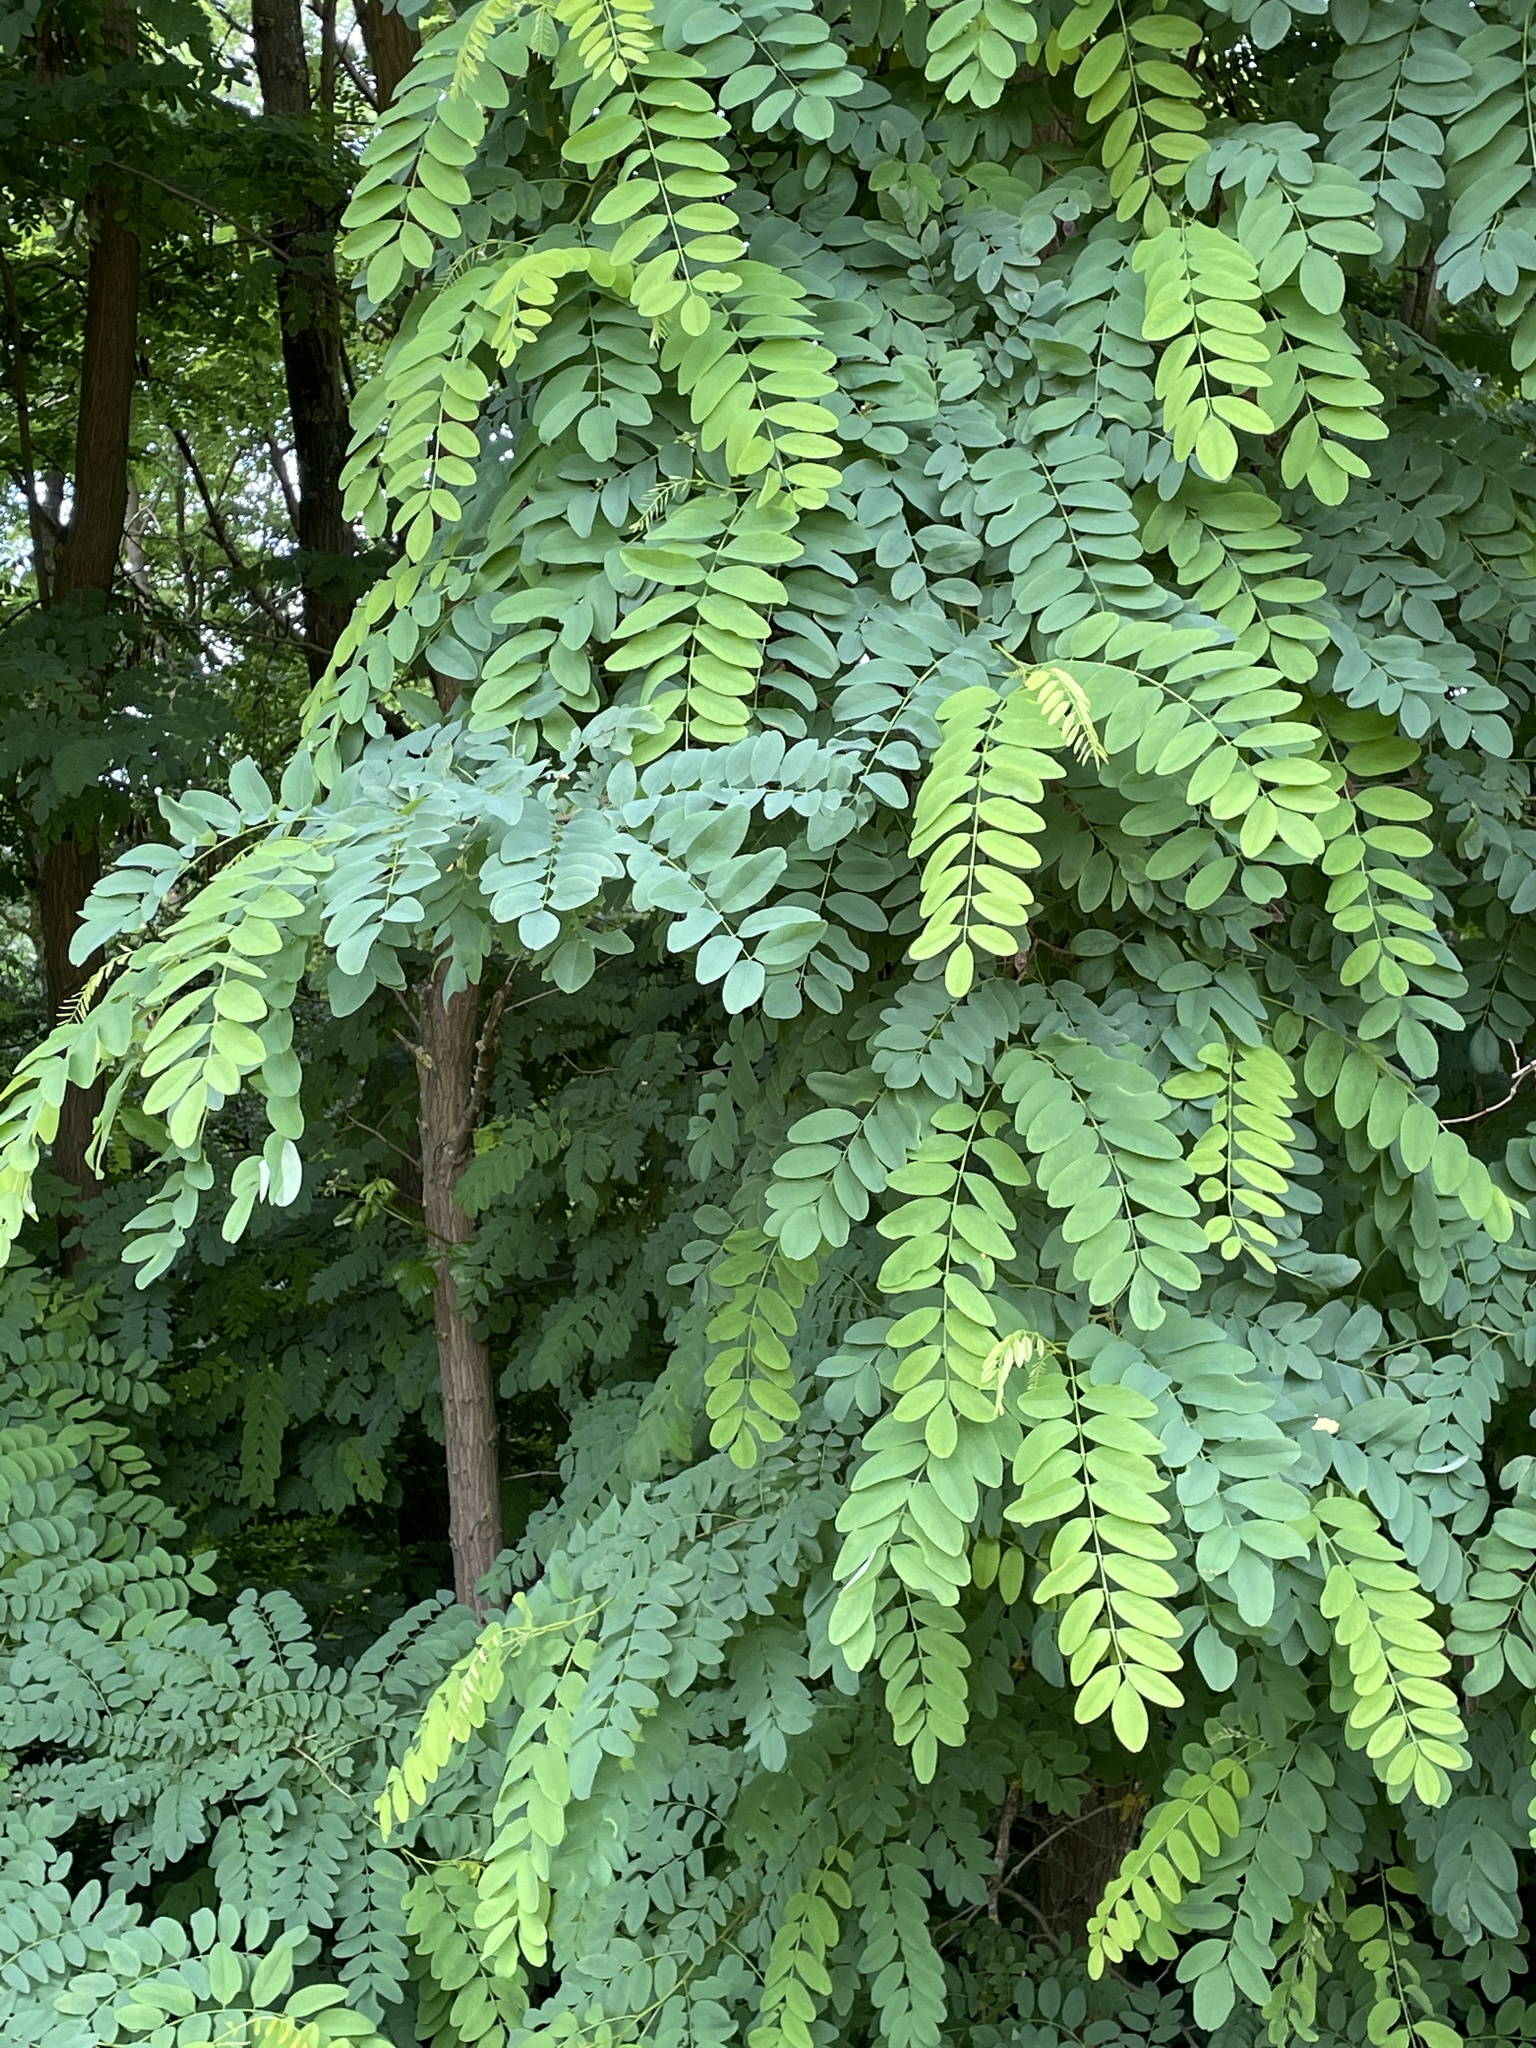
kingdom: Plantae
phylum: Tracheophyta
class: Magnoliopsida
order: Fabales
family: Fabaceae
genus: Robinia
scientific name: Robinia pseudoacacia
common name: Black locust
